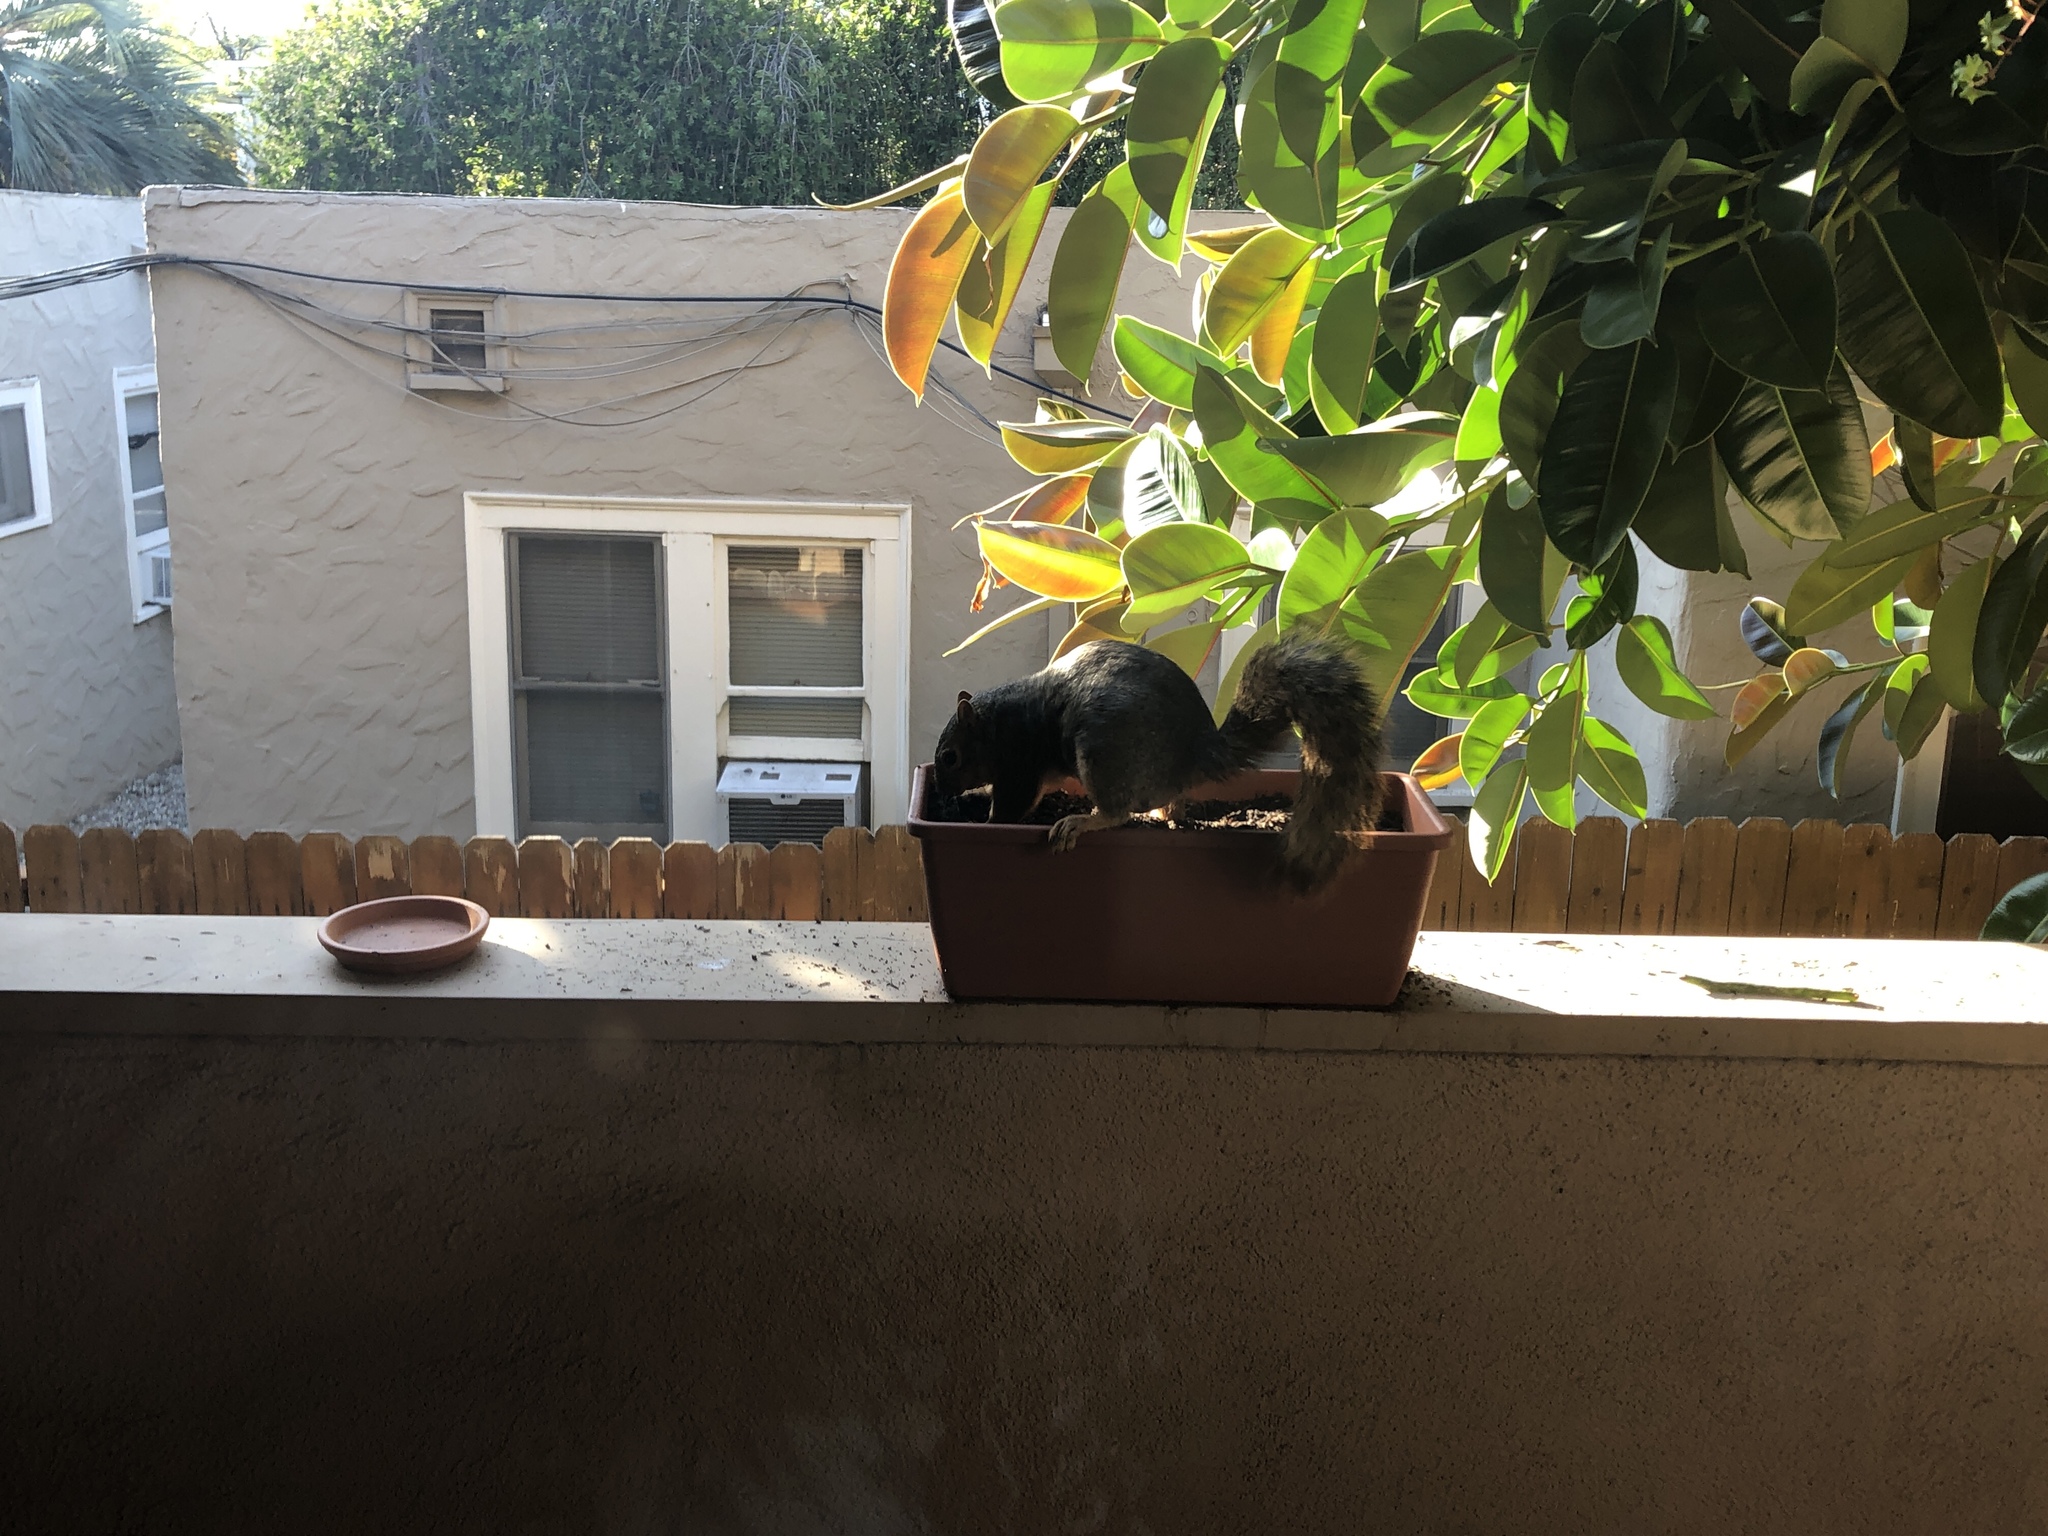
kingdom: Animalia
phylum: Chordata
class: Mammalia
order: Rodentia
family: Sciuridae
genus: Sciurus
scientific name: Sciurus niger
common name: Fox squirrel
